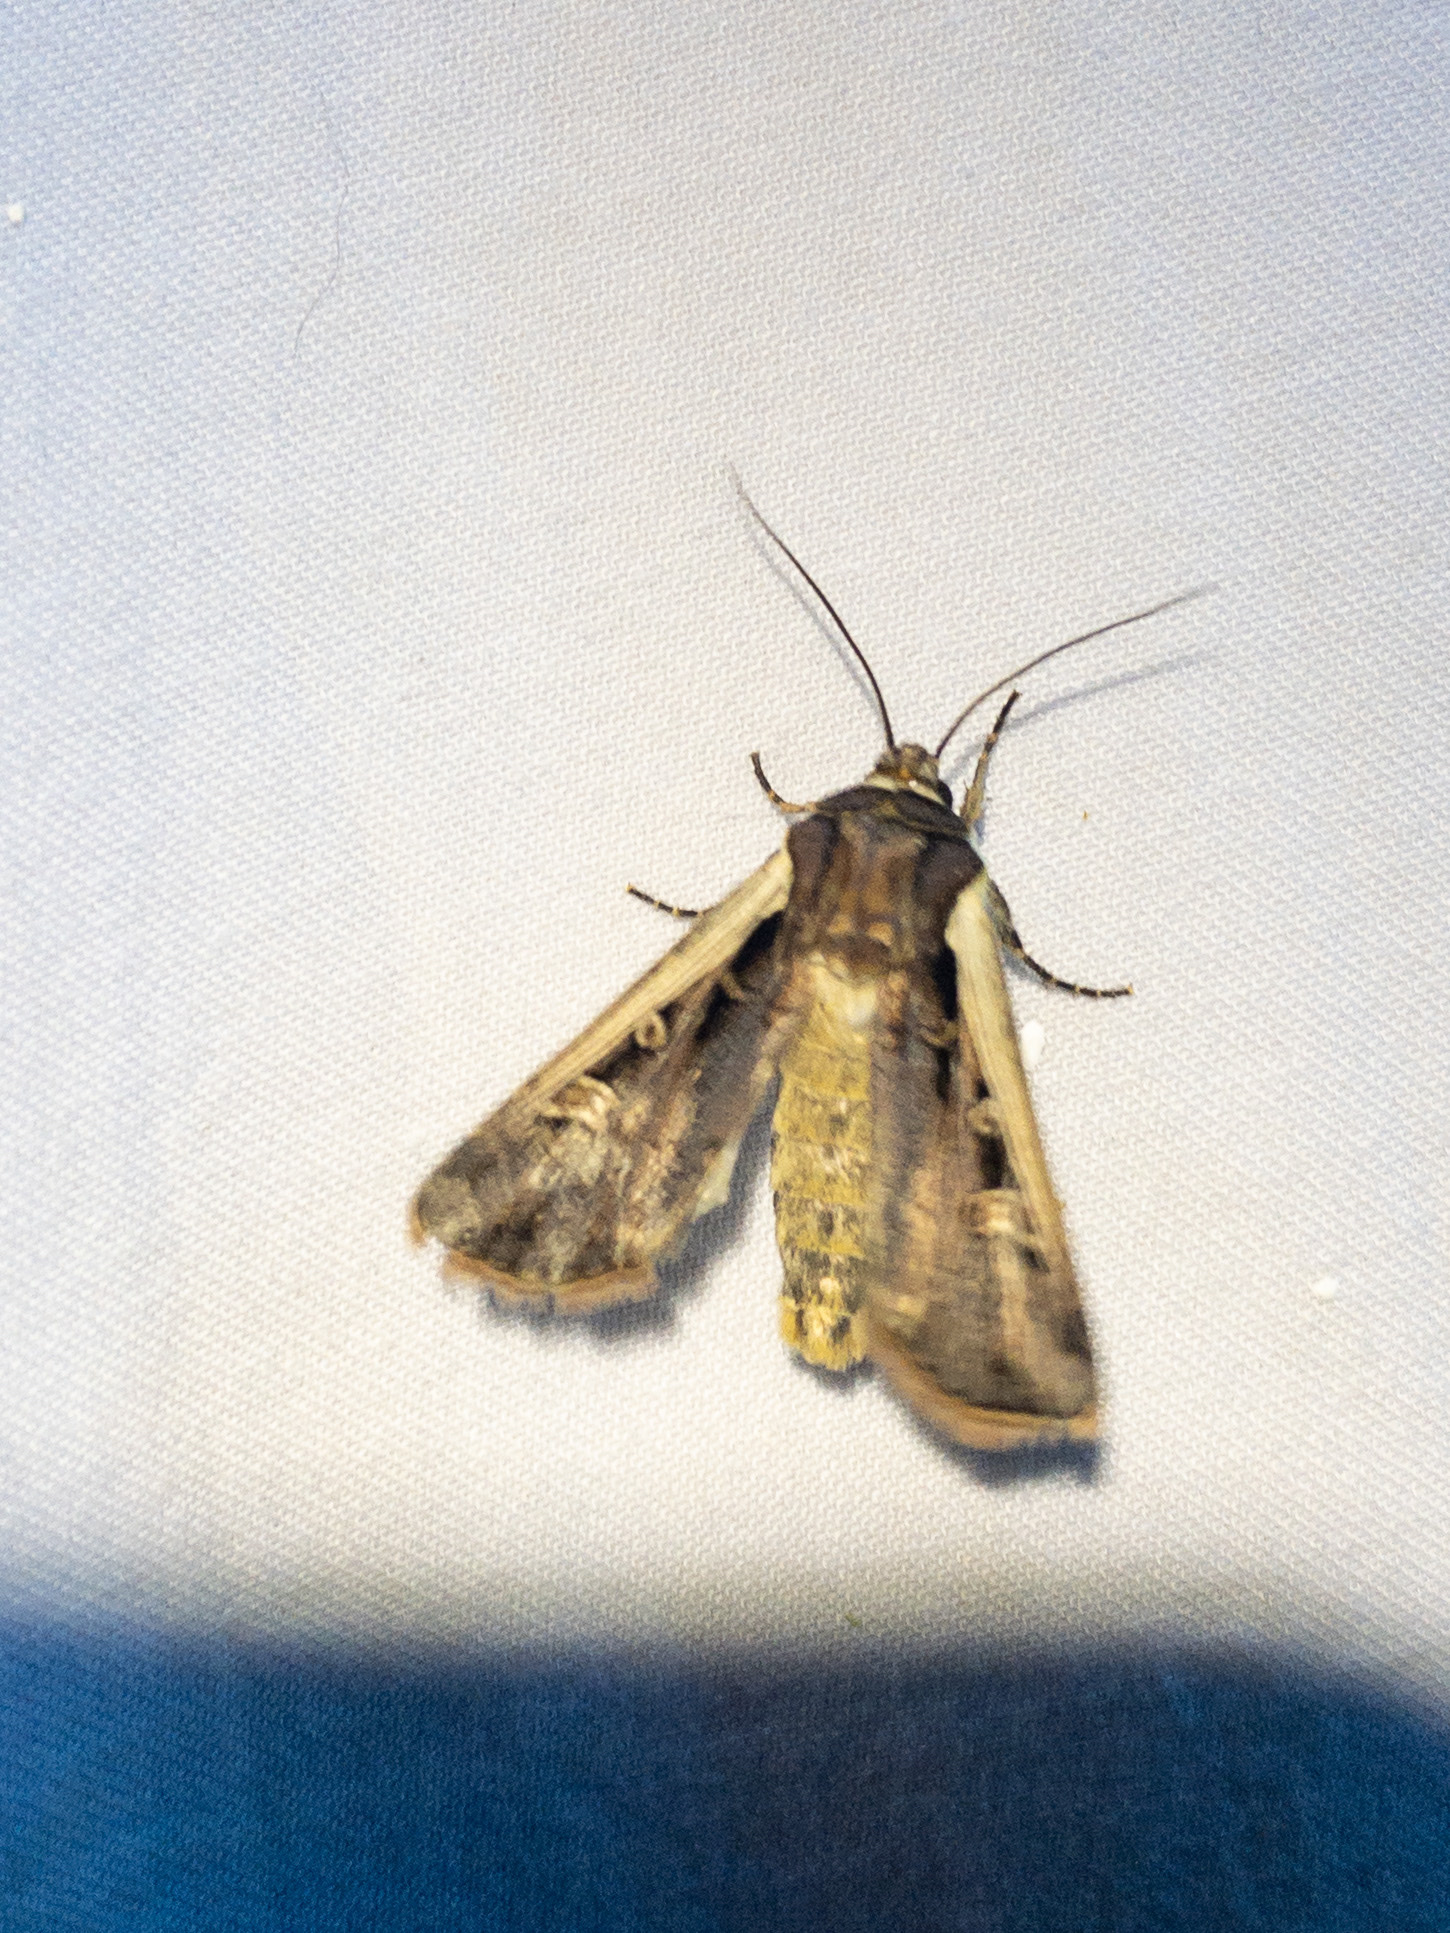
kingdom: Animalia
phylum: Arthropoda
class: Insecta
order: Lepidoptera
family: Noctuidae
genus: Ochropleura
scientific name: Ochropleura implecta
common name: Flame-shouldered dart
